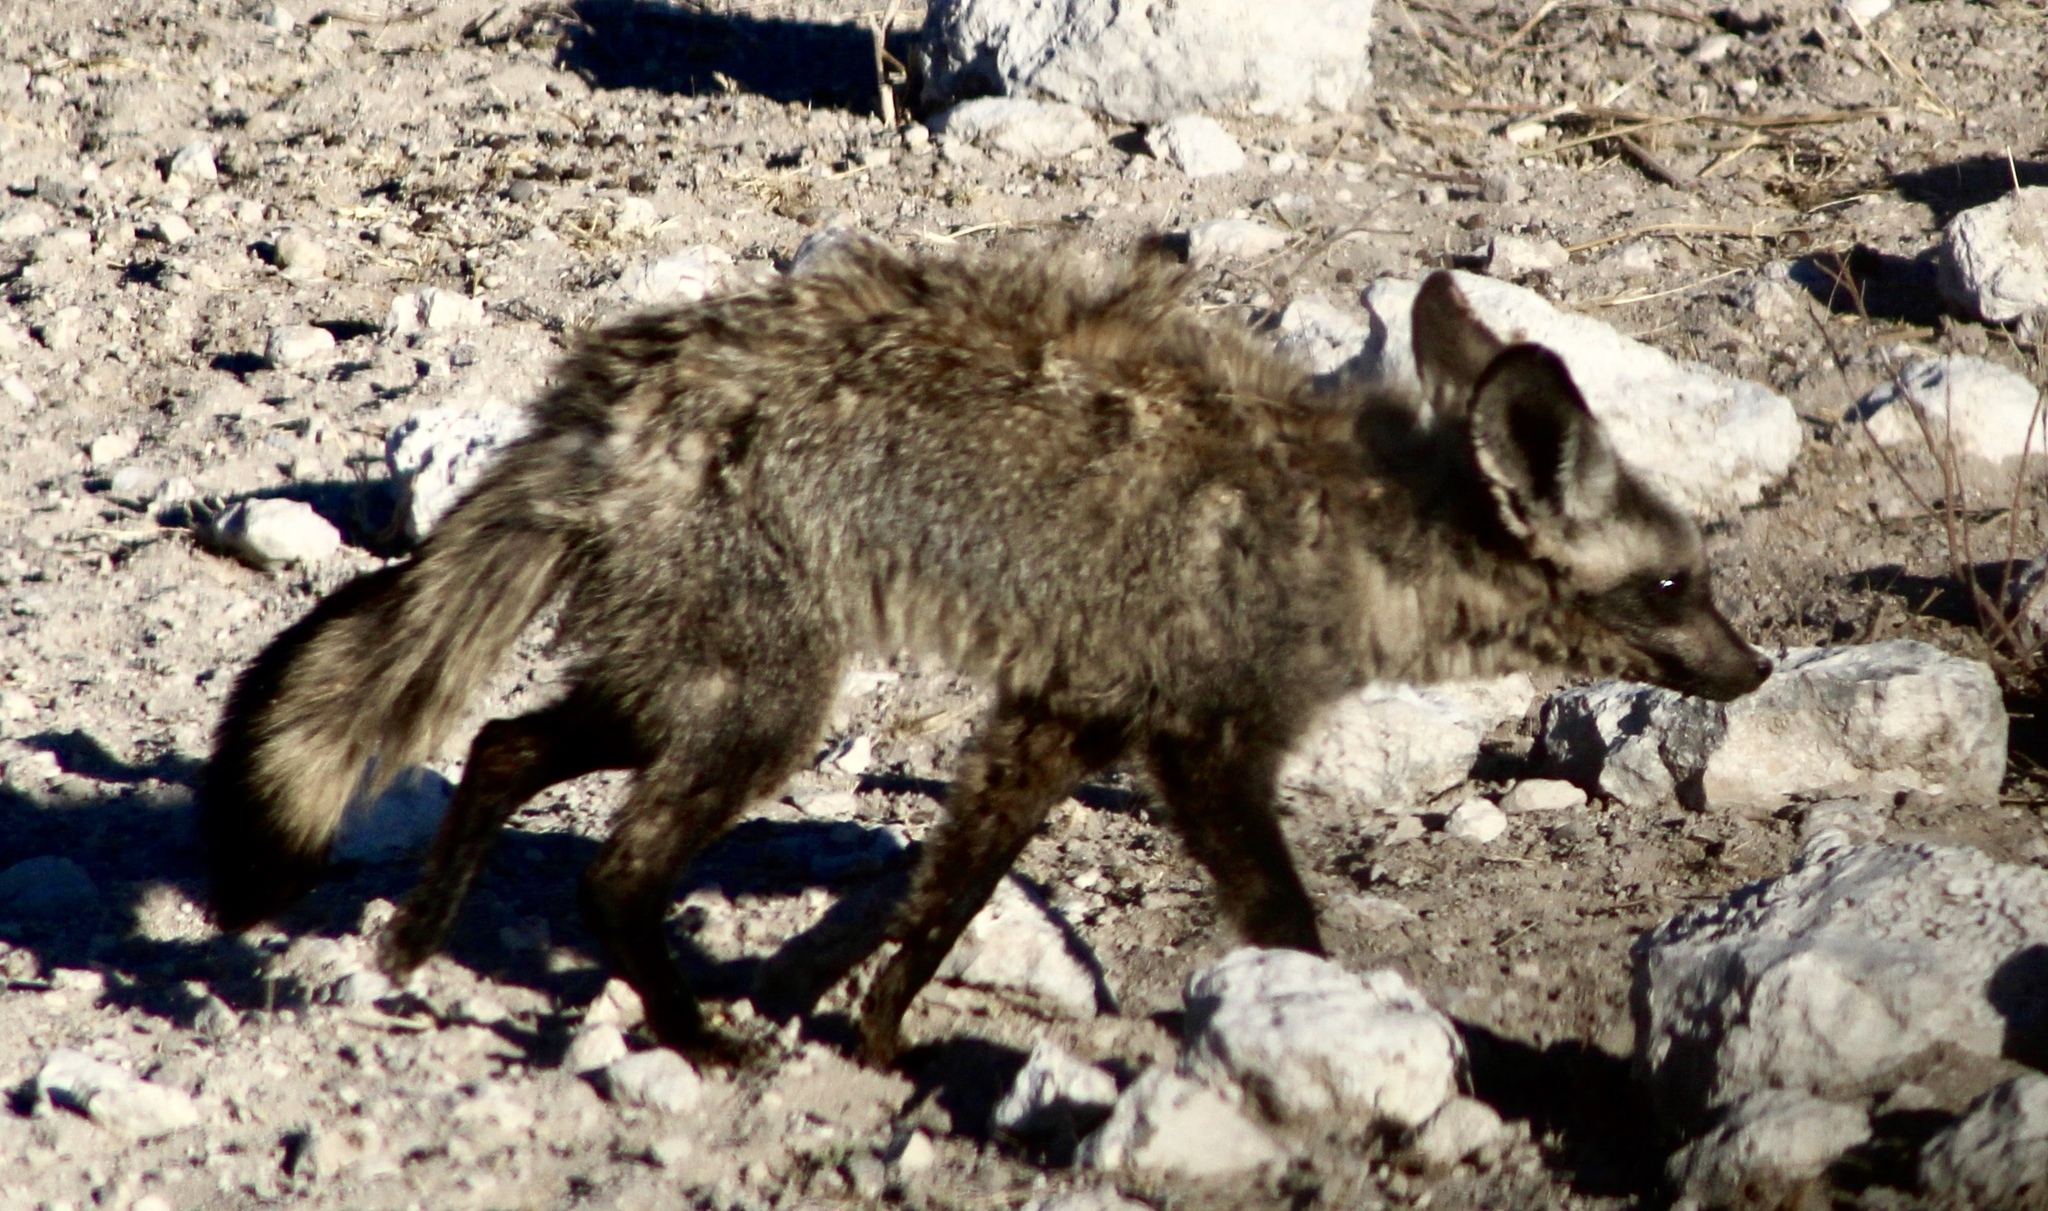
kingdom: Animalia
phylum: Chordata
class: Mammalia
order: Carnivora
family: Canidae
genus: Otocyon
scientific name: Otocyon megalotis
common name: Bat-eared fox
